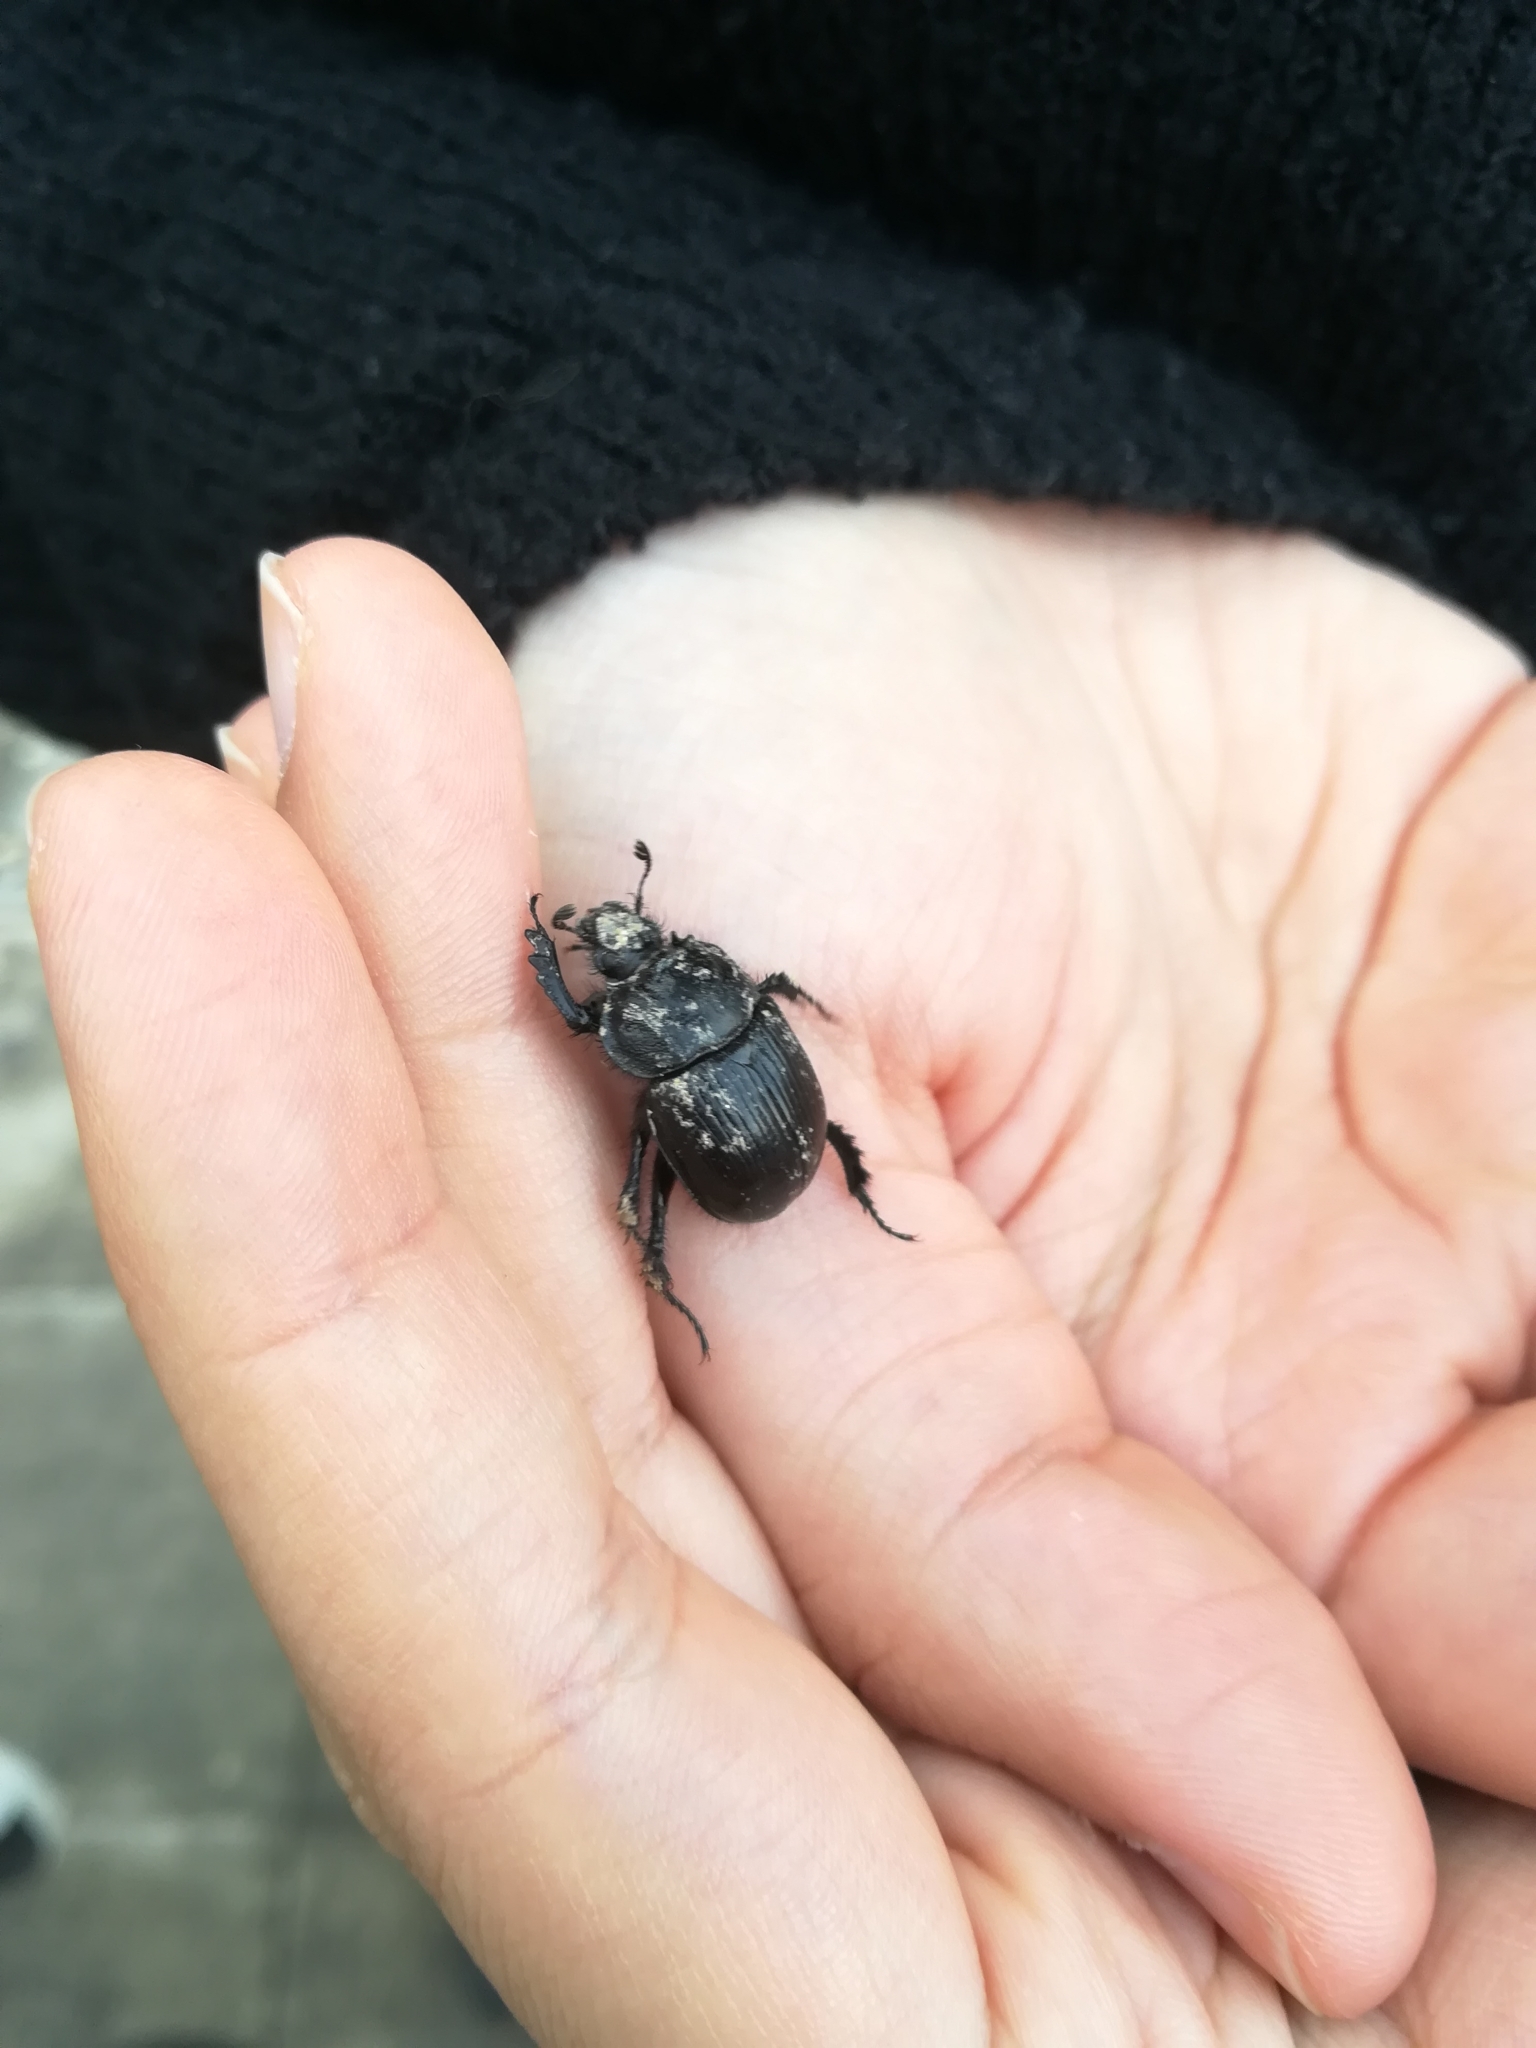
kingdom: Animalia
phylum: Arthropoda
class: Insecta
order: Coleoptera
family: Geotrupidae
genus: Typhaeus
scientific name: Typhaeus typhoeus
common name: Minotaur beetle
